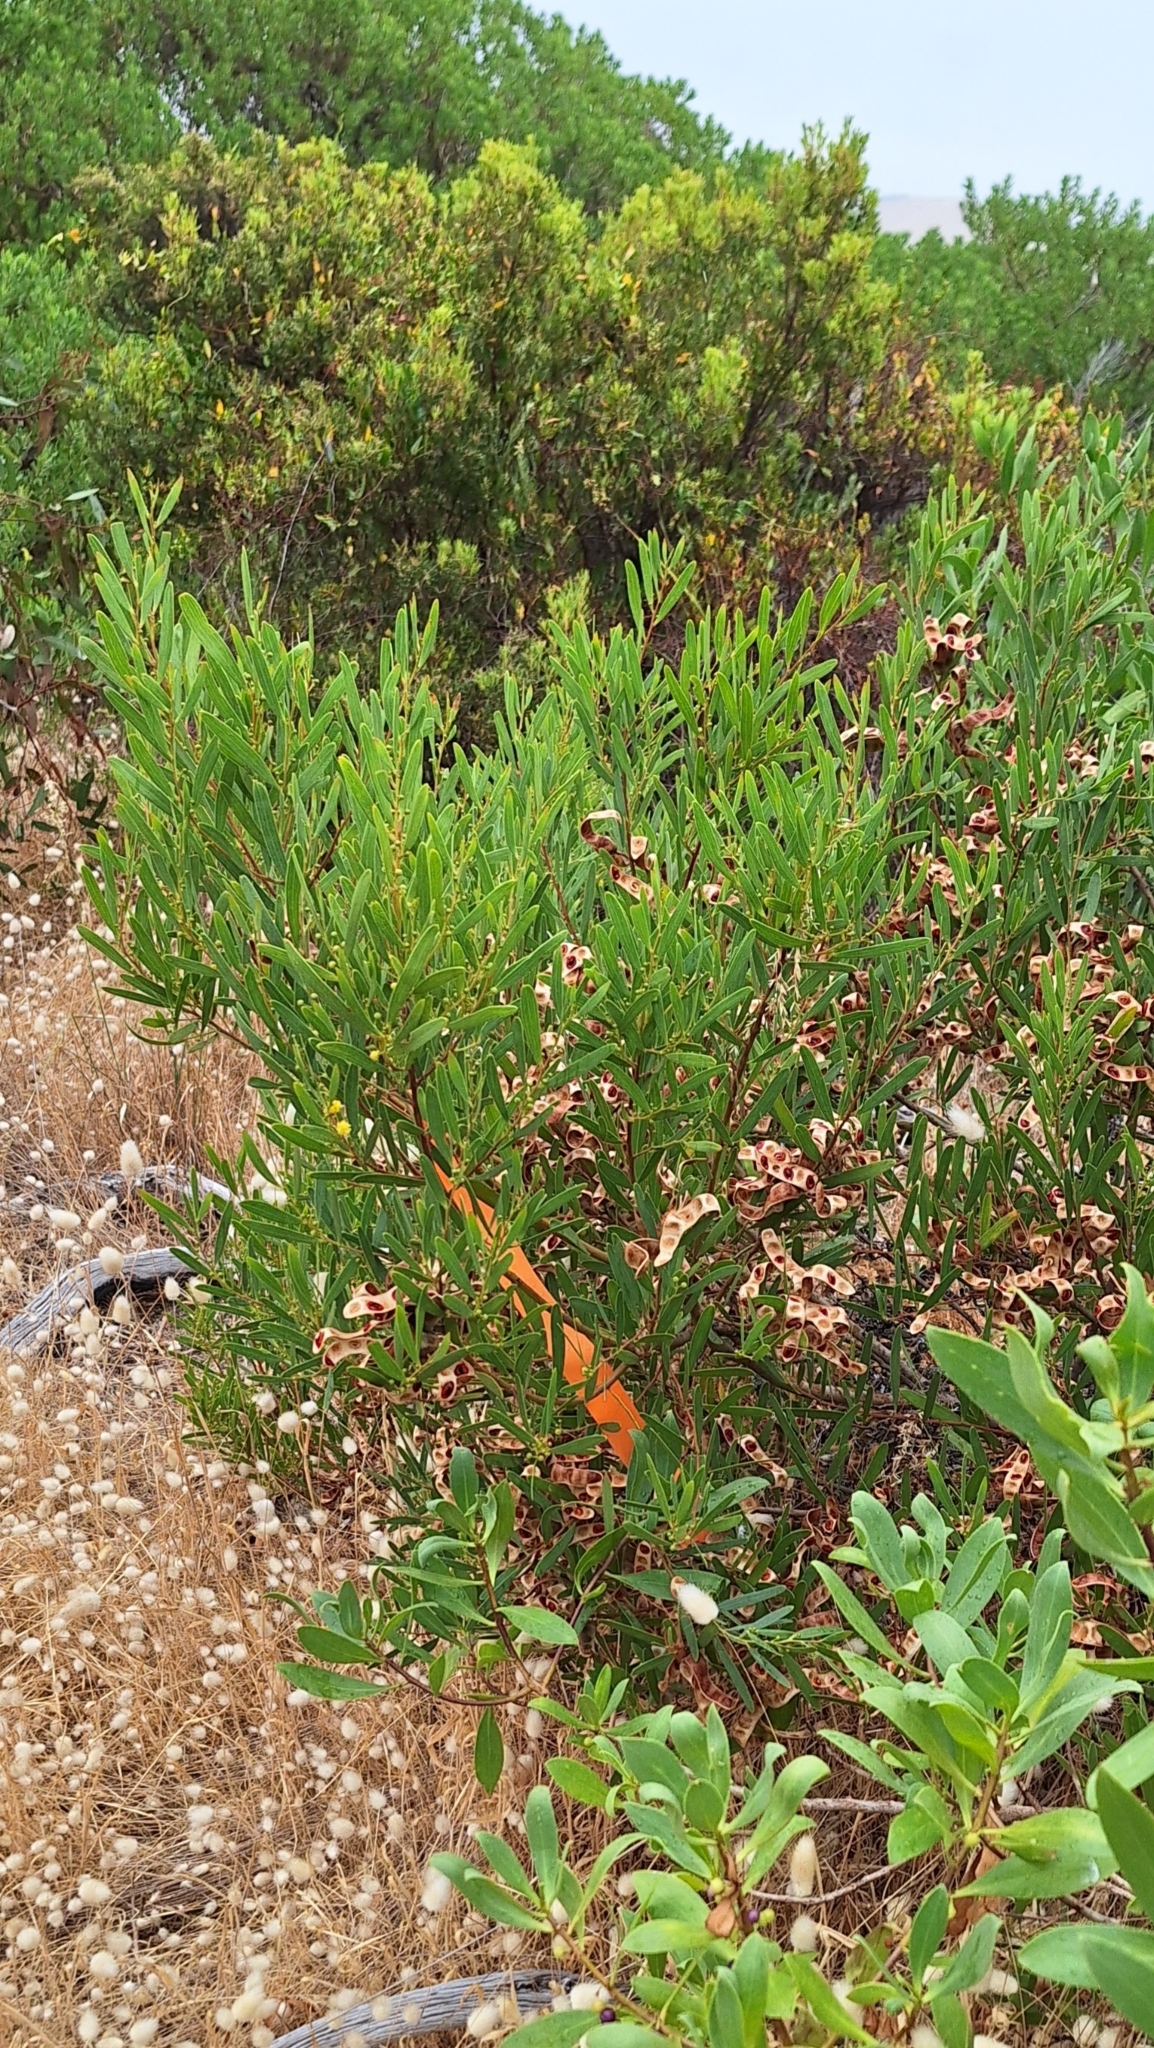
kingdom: Plantae
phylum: Tracheophyta
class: Magnoliopsida
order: Fabales
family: Fabaceae
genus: Acacia
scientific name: Acacia cyclops
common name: Coastal wattle
